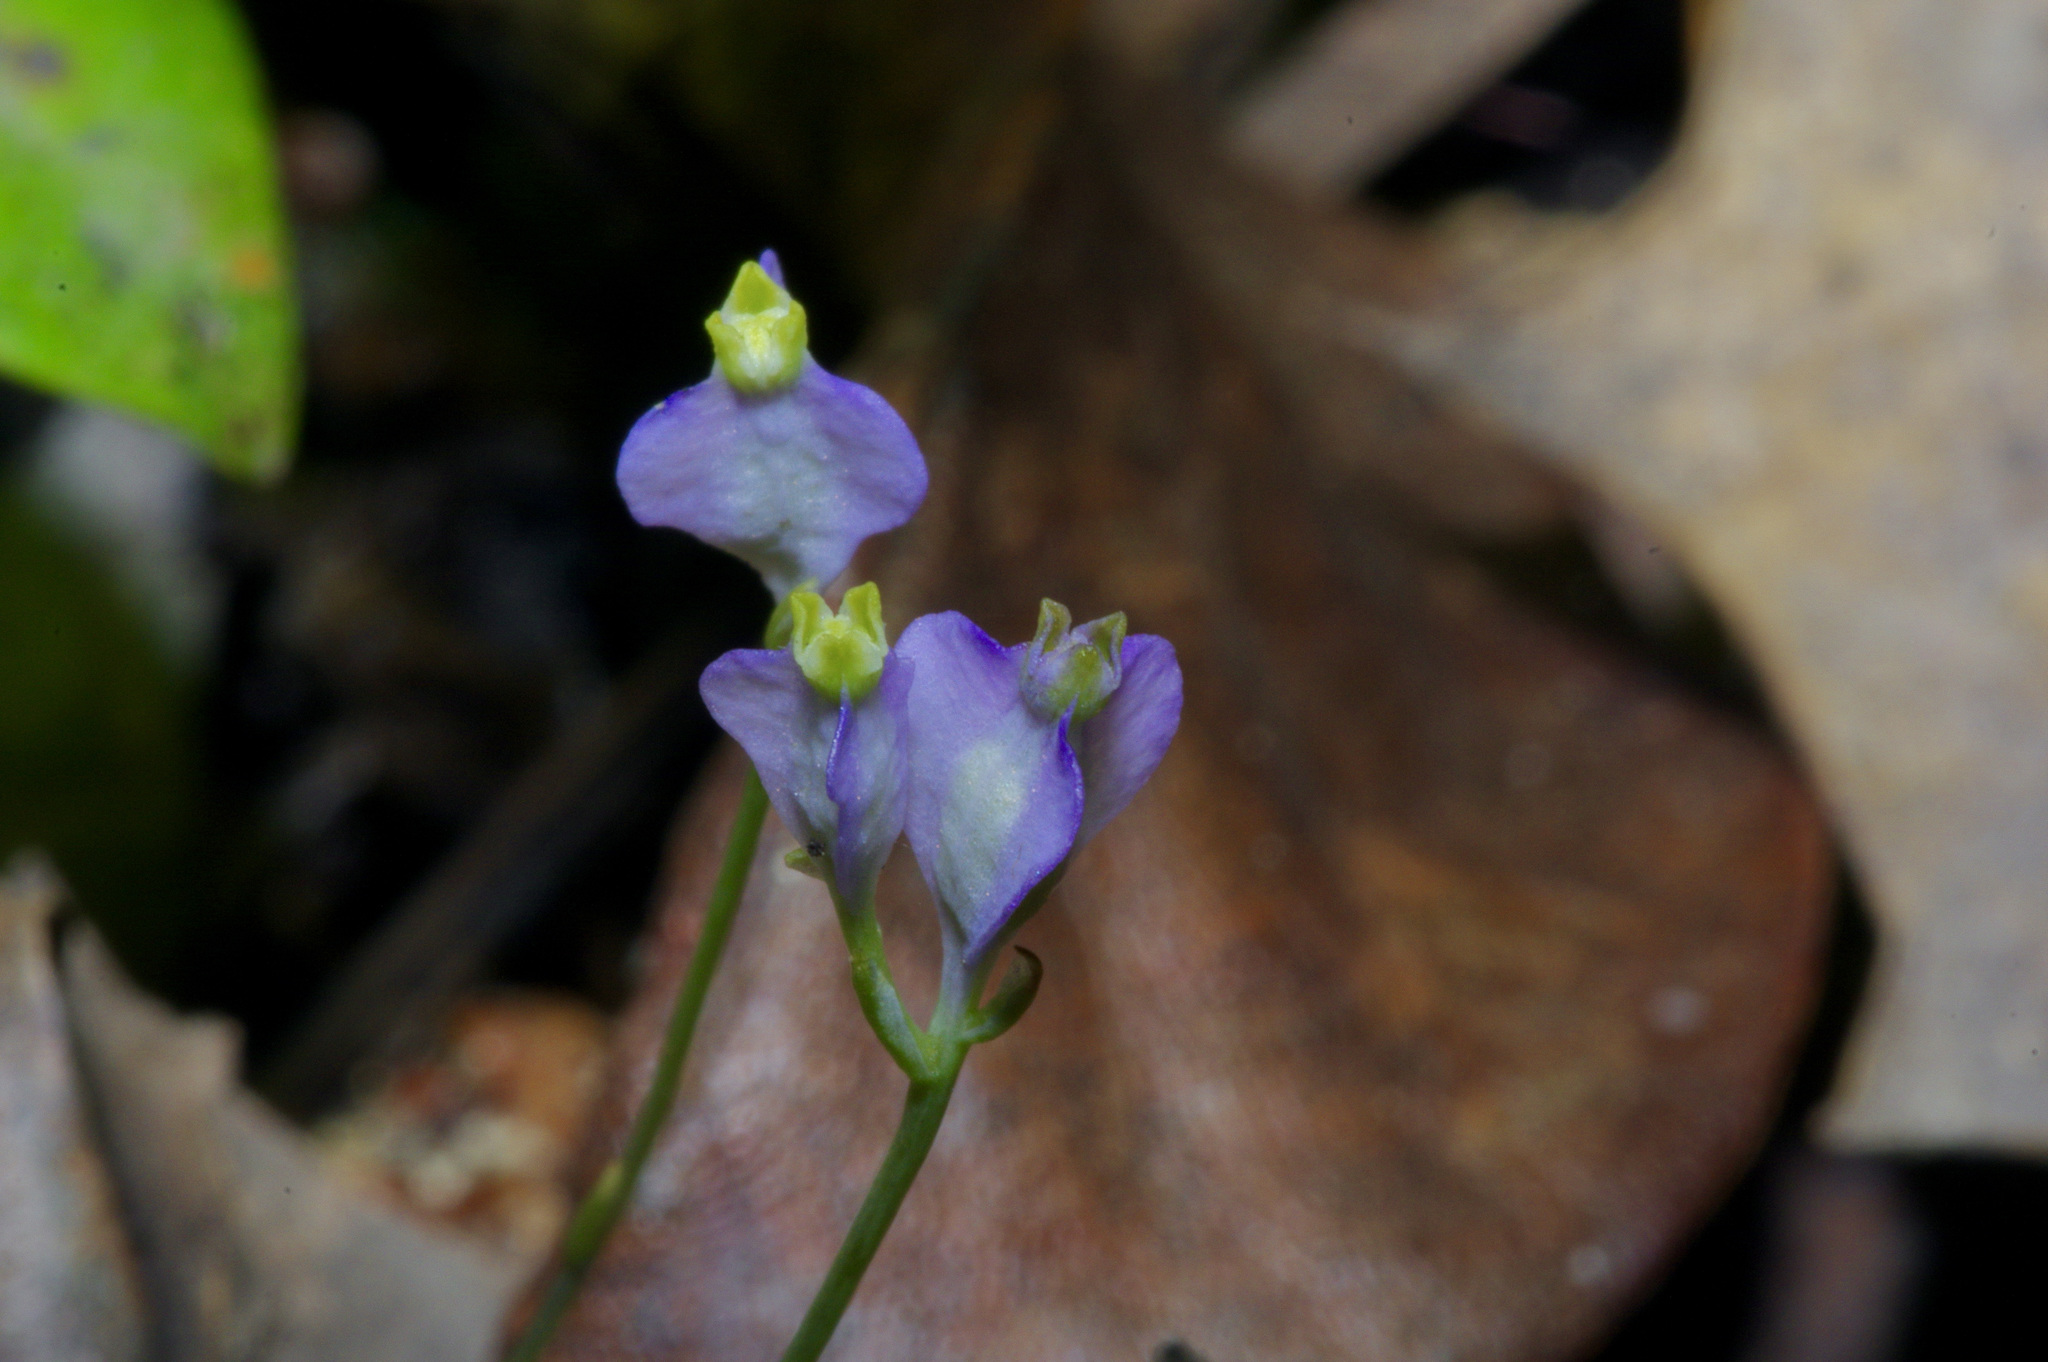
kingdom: Plantae
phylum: Tracheophyta
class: Liliopsida
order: Dioscoreales
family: Burmanniaceae
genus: Burmannia
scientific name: Burmannia biflora
